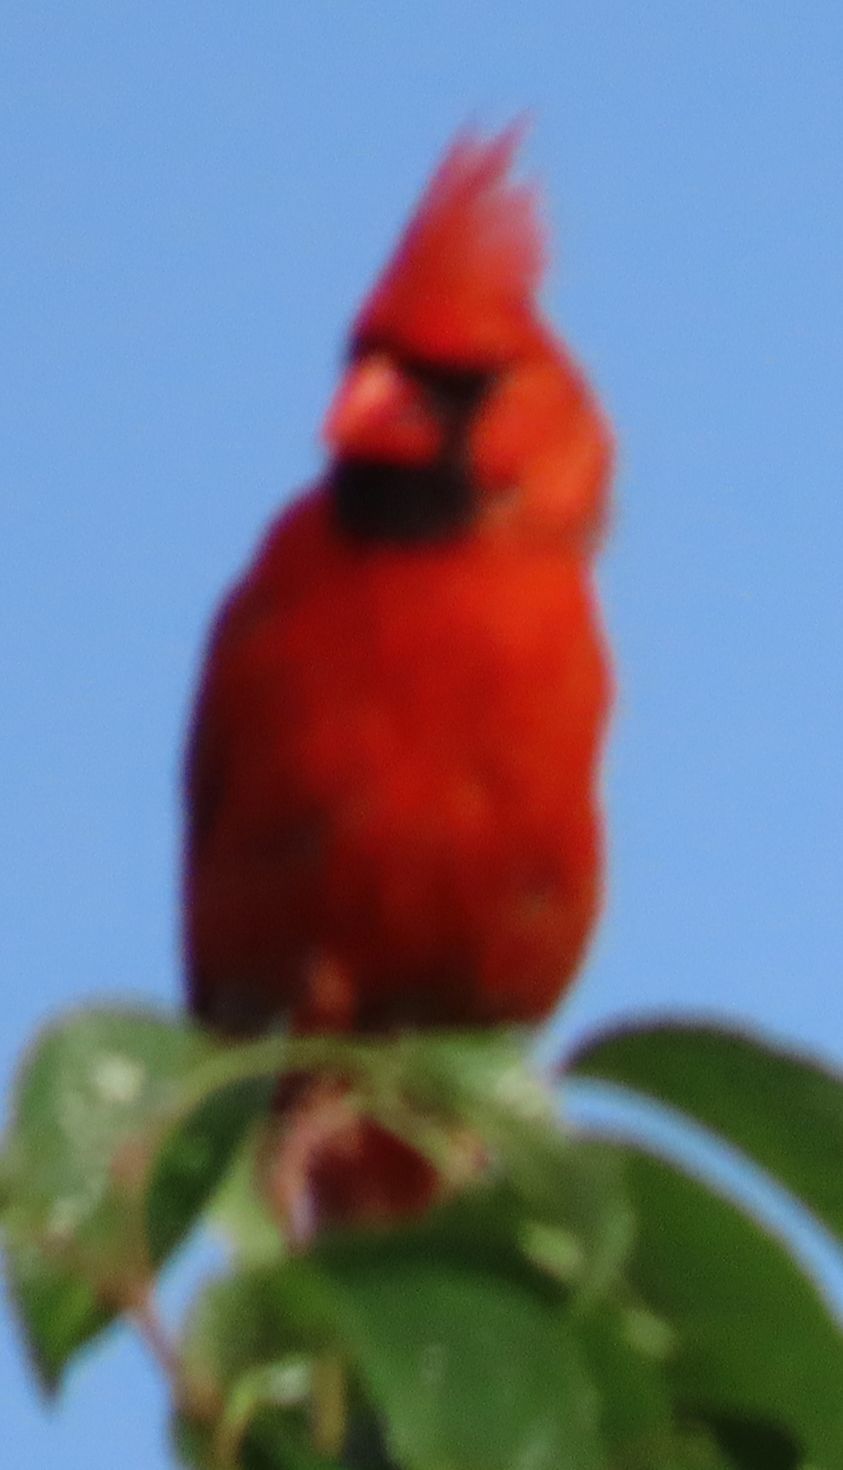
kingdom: Animalia
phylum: Chordata
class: Aves
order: Passeriformes
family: Cardinalidae
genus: Cardinalis
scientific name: Cardinalis cardinalis
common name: Northern cardinal
